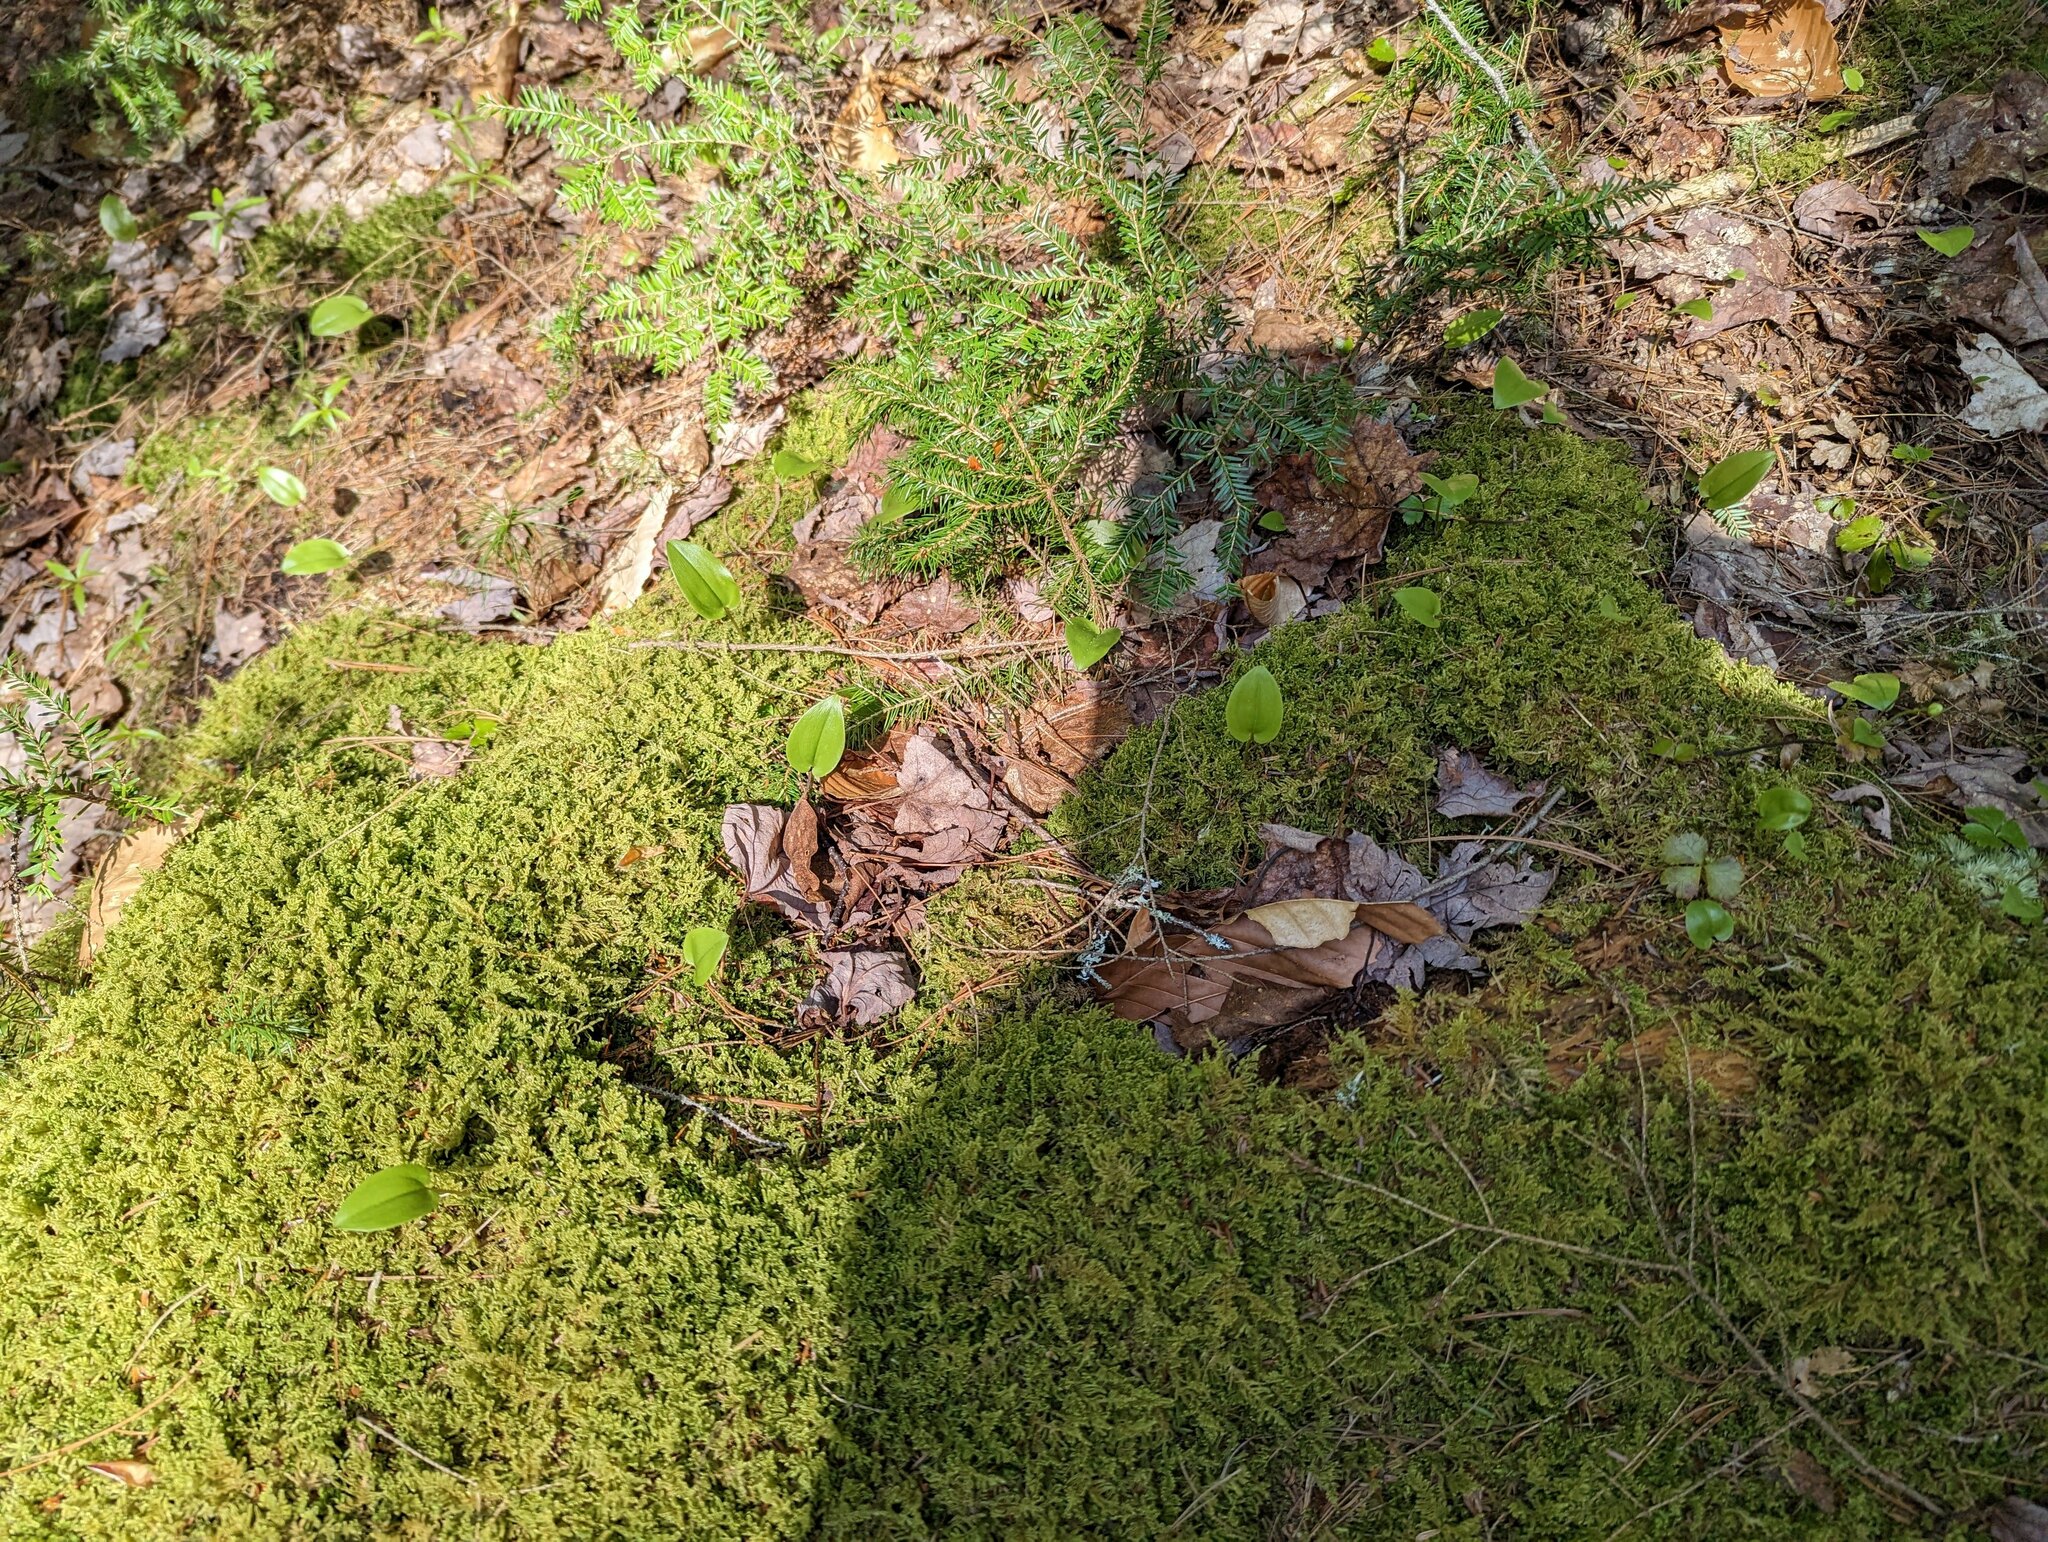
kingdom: Plantae
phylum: Tracheophyta
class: Liliopsida
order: Asparagales
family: Asparagaceae
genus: Maianthemum
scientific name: Maianthemum canadense
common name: False lily-of-the-valley
